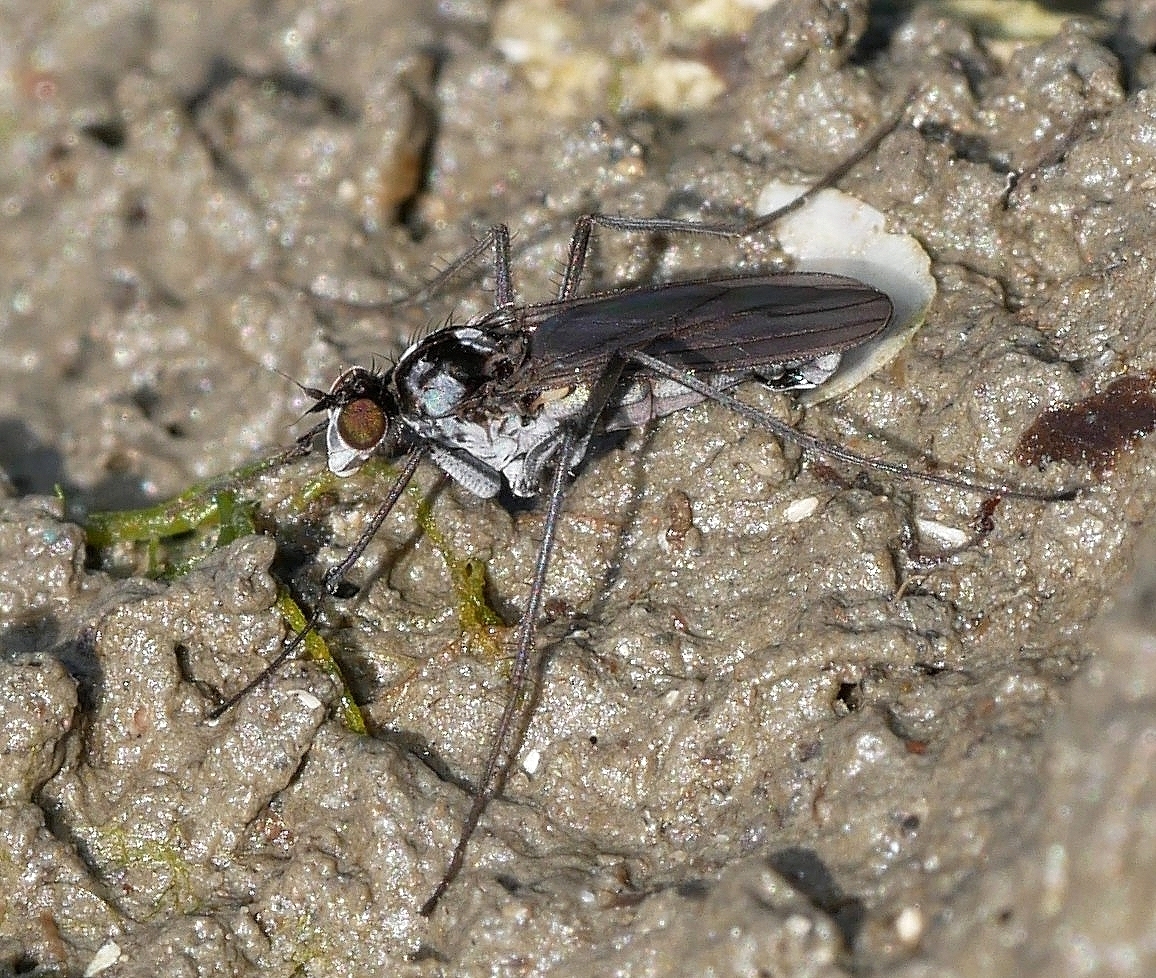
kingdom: Animalia
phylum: Arthropoda
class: Insecta
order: Diptera
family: Dolichopodidae
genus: Thambemyia
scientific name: Thambemyia borealis
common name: Fly
